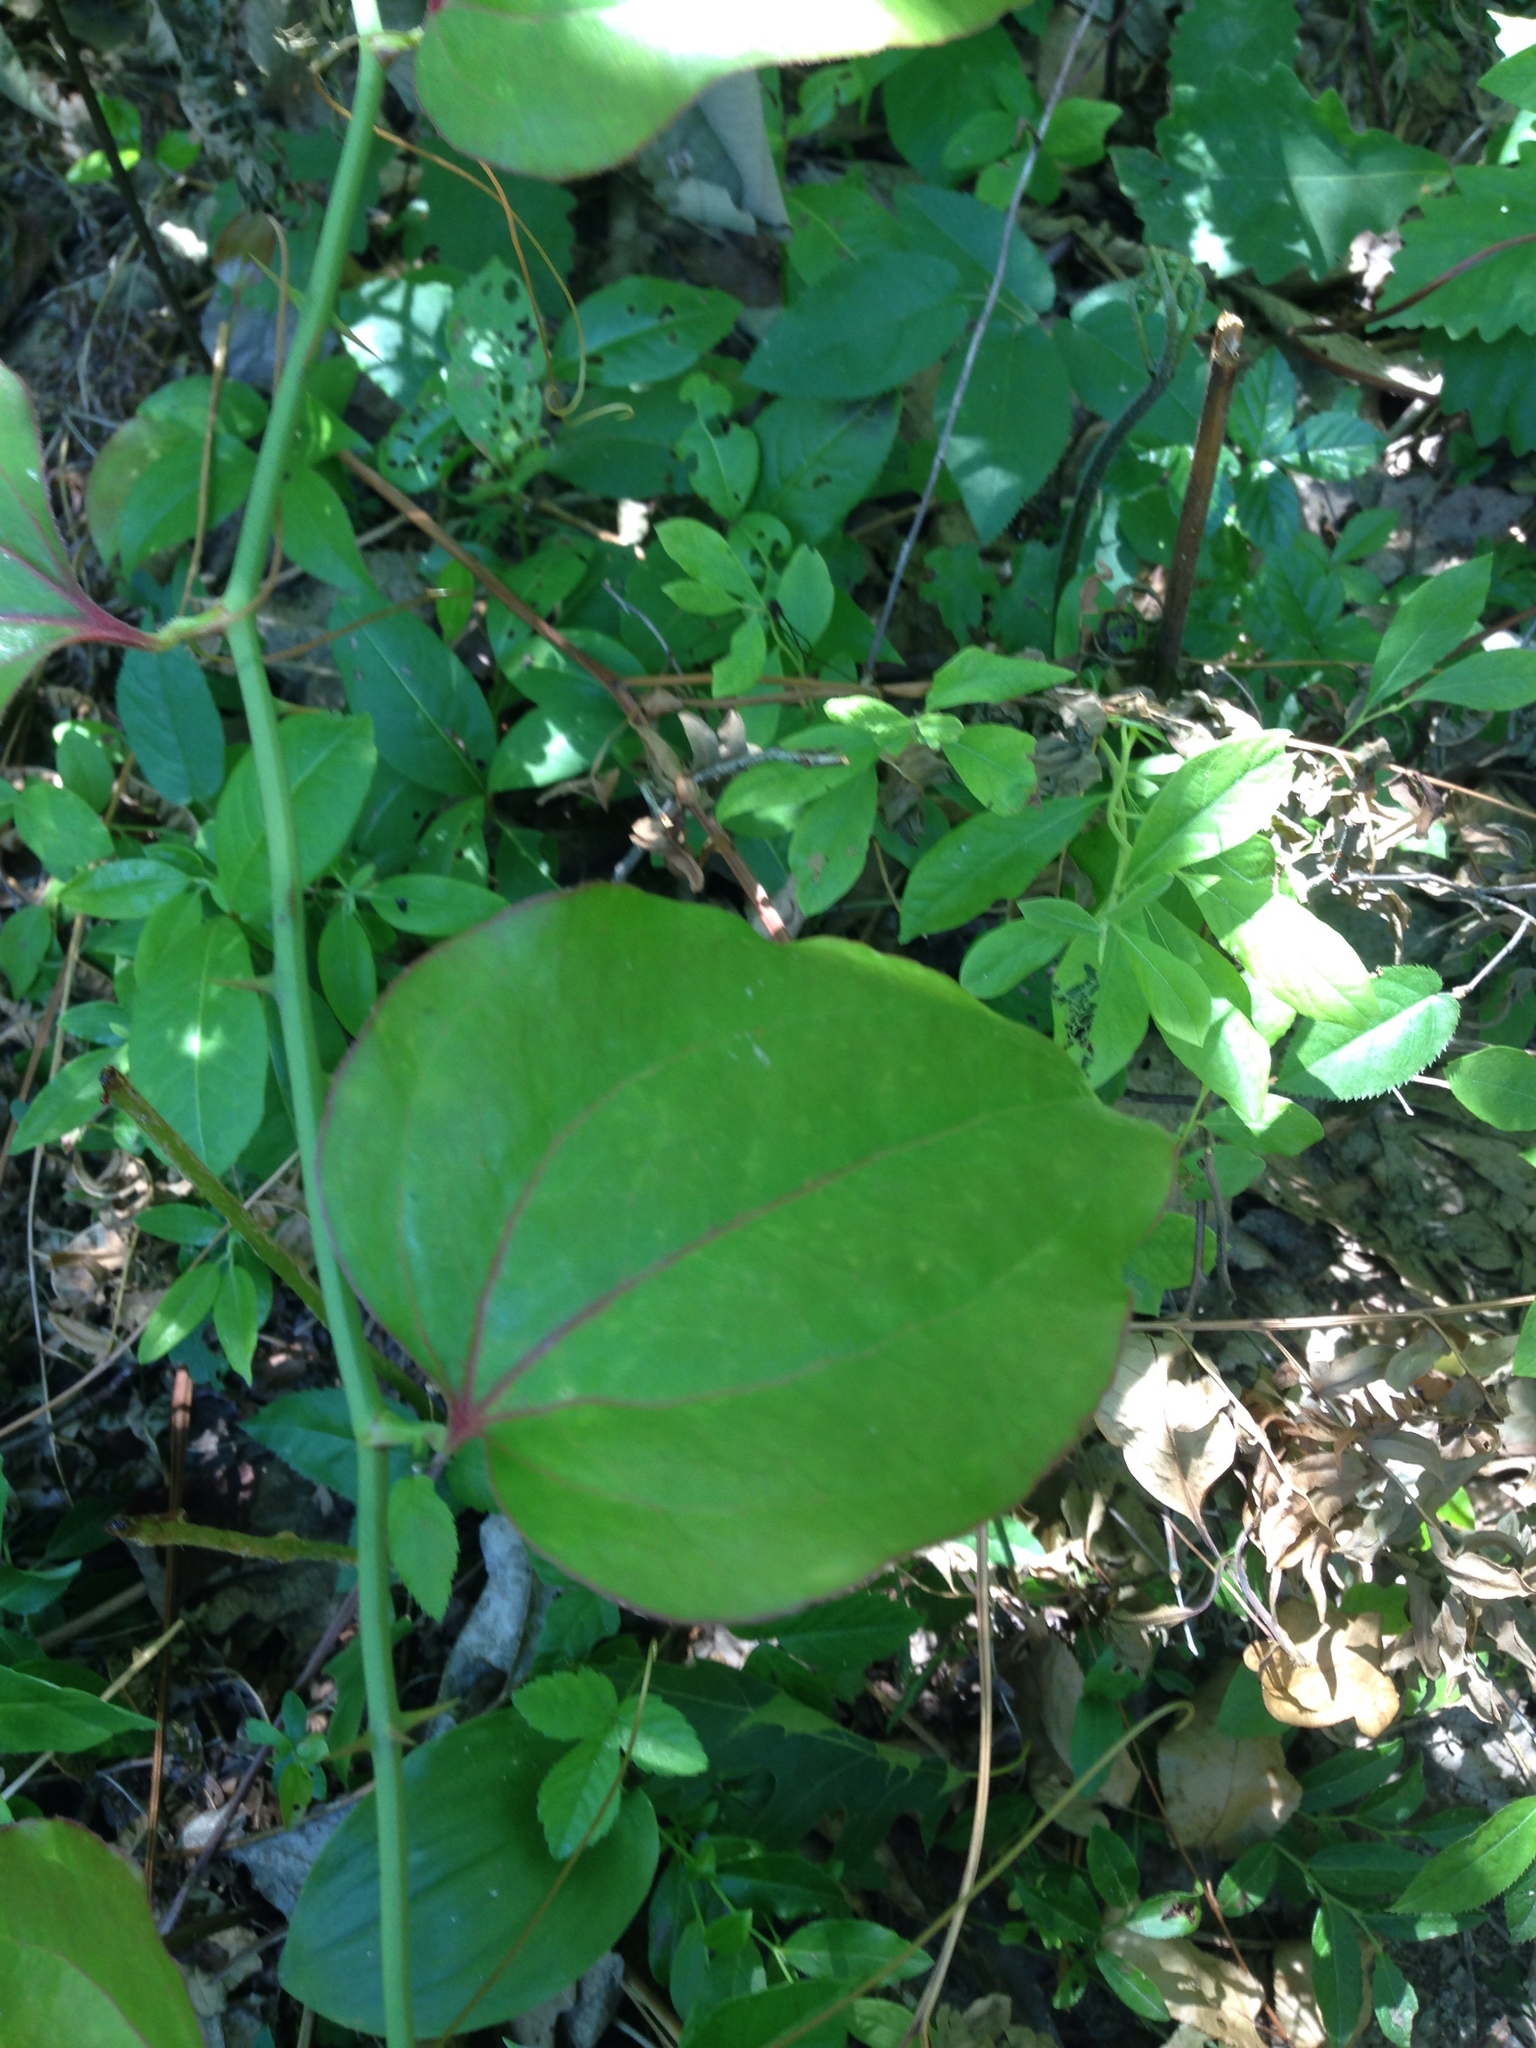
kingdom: Plantae
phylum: Tracheophyta
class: Liliopsida
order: Liliales
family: Smilacaceae
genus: Smilax
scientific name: Smilax rotundifolia
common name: Bullbriar
